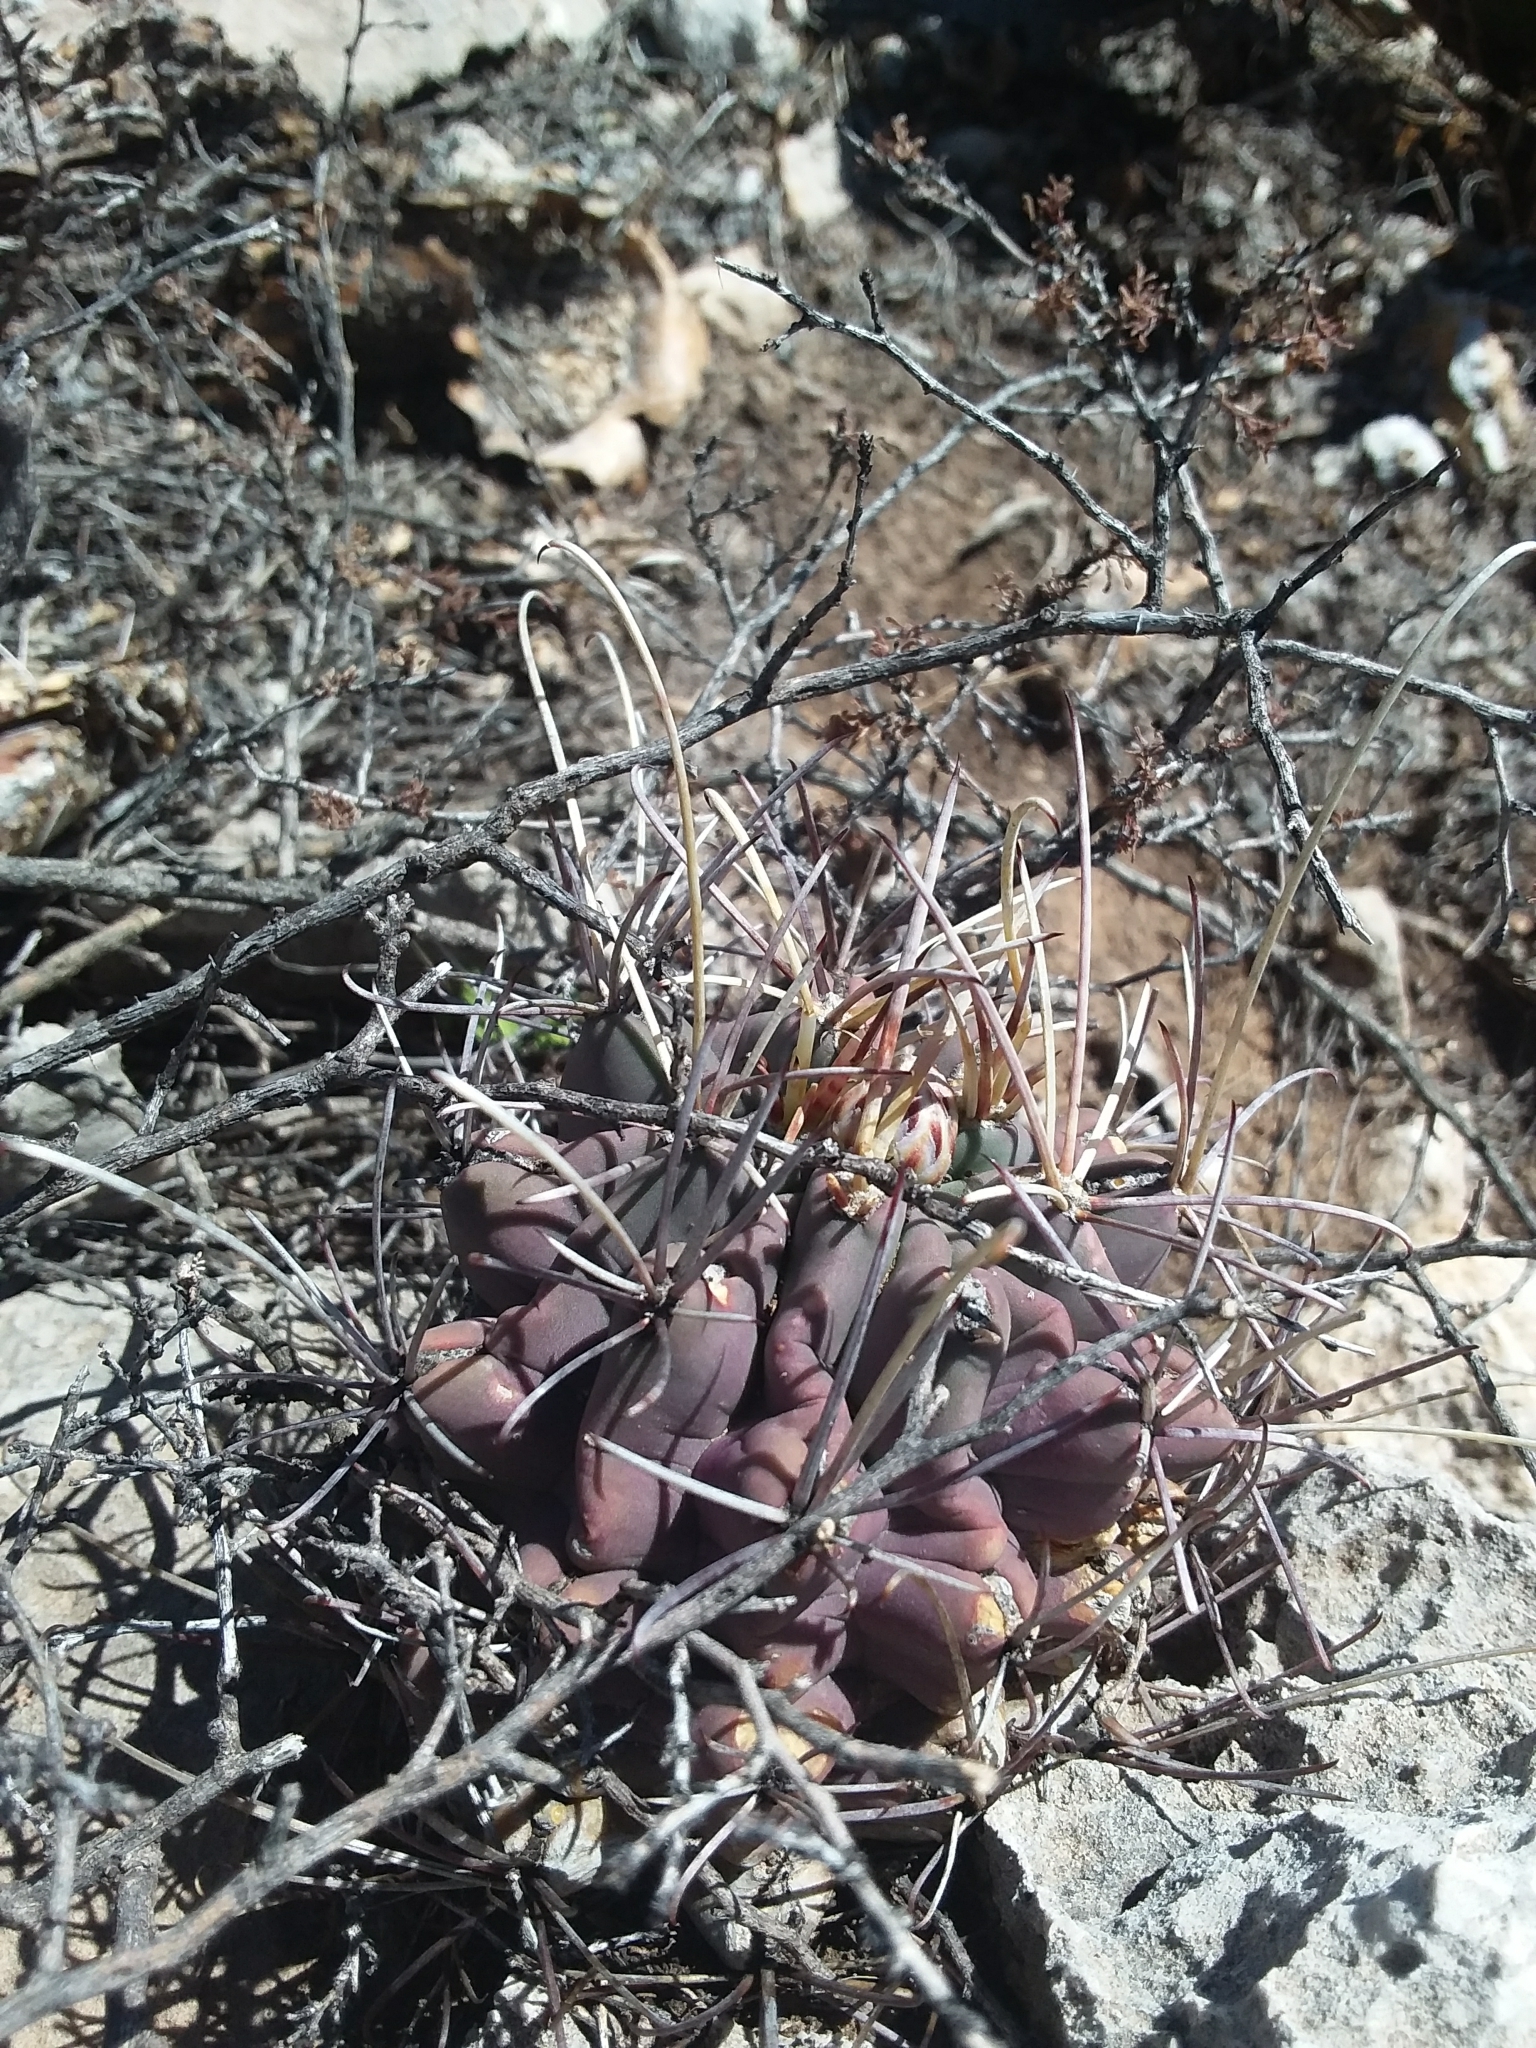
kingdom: Plantae
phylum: Tracheophyta
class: Magnoliopsida
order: Caryophyllales
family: Cactaceae
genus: Ferocactus
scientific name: Ferocactus uncinatus
